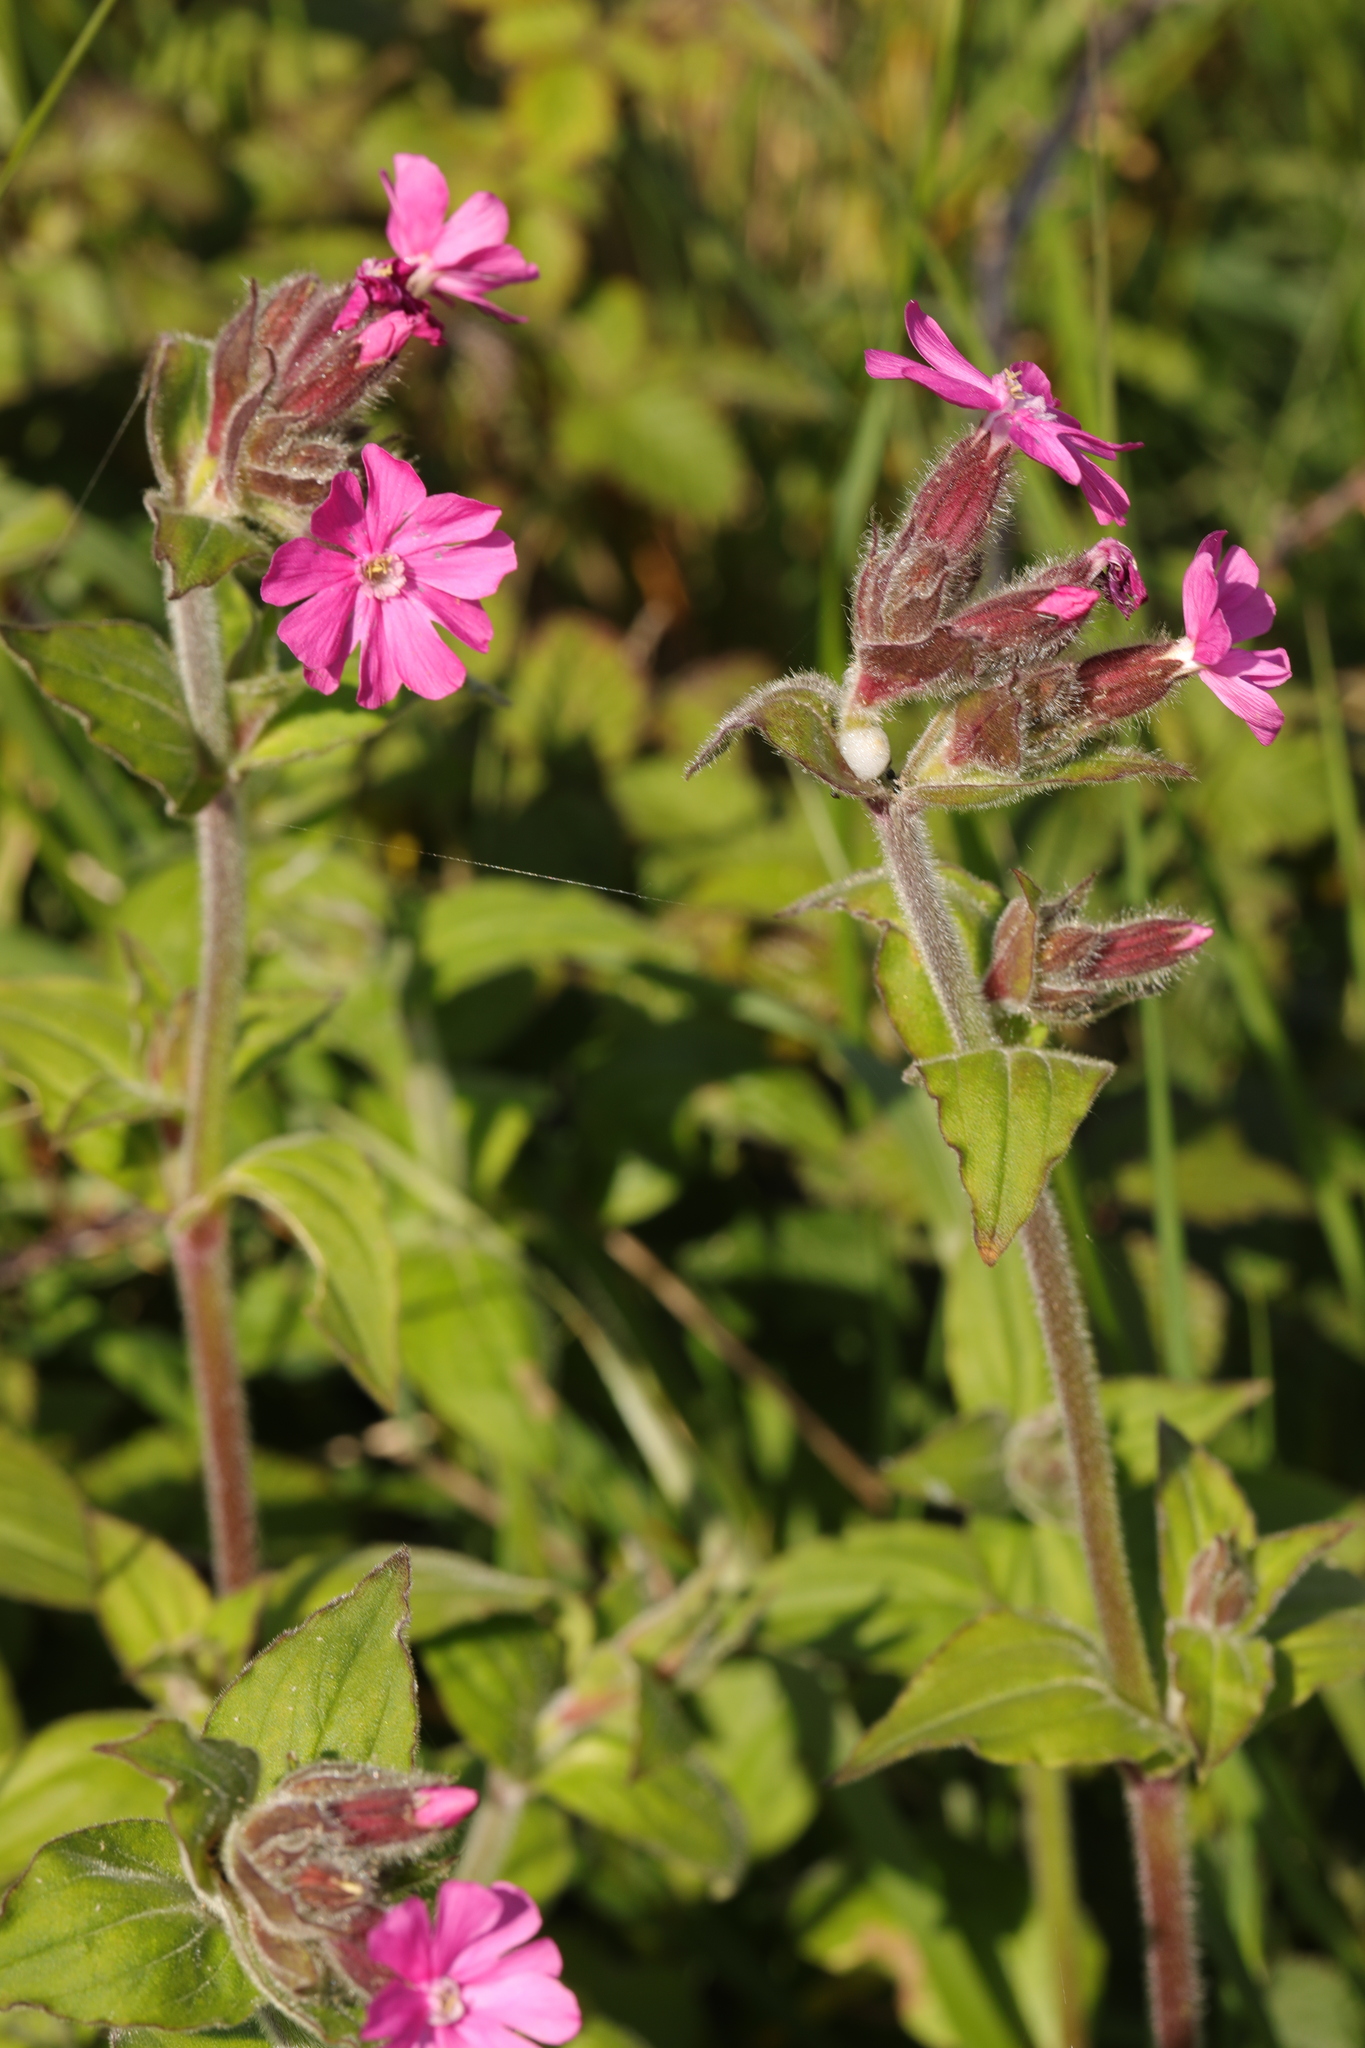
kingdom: Plantae
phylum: Tracheophyta
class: Magnoliopsida
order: Caryophyllales
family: Caryophyllaceae
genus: Silene
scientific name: Silene dioica
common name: Red campion
